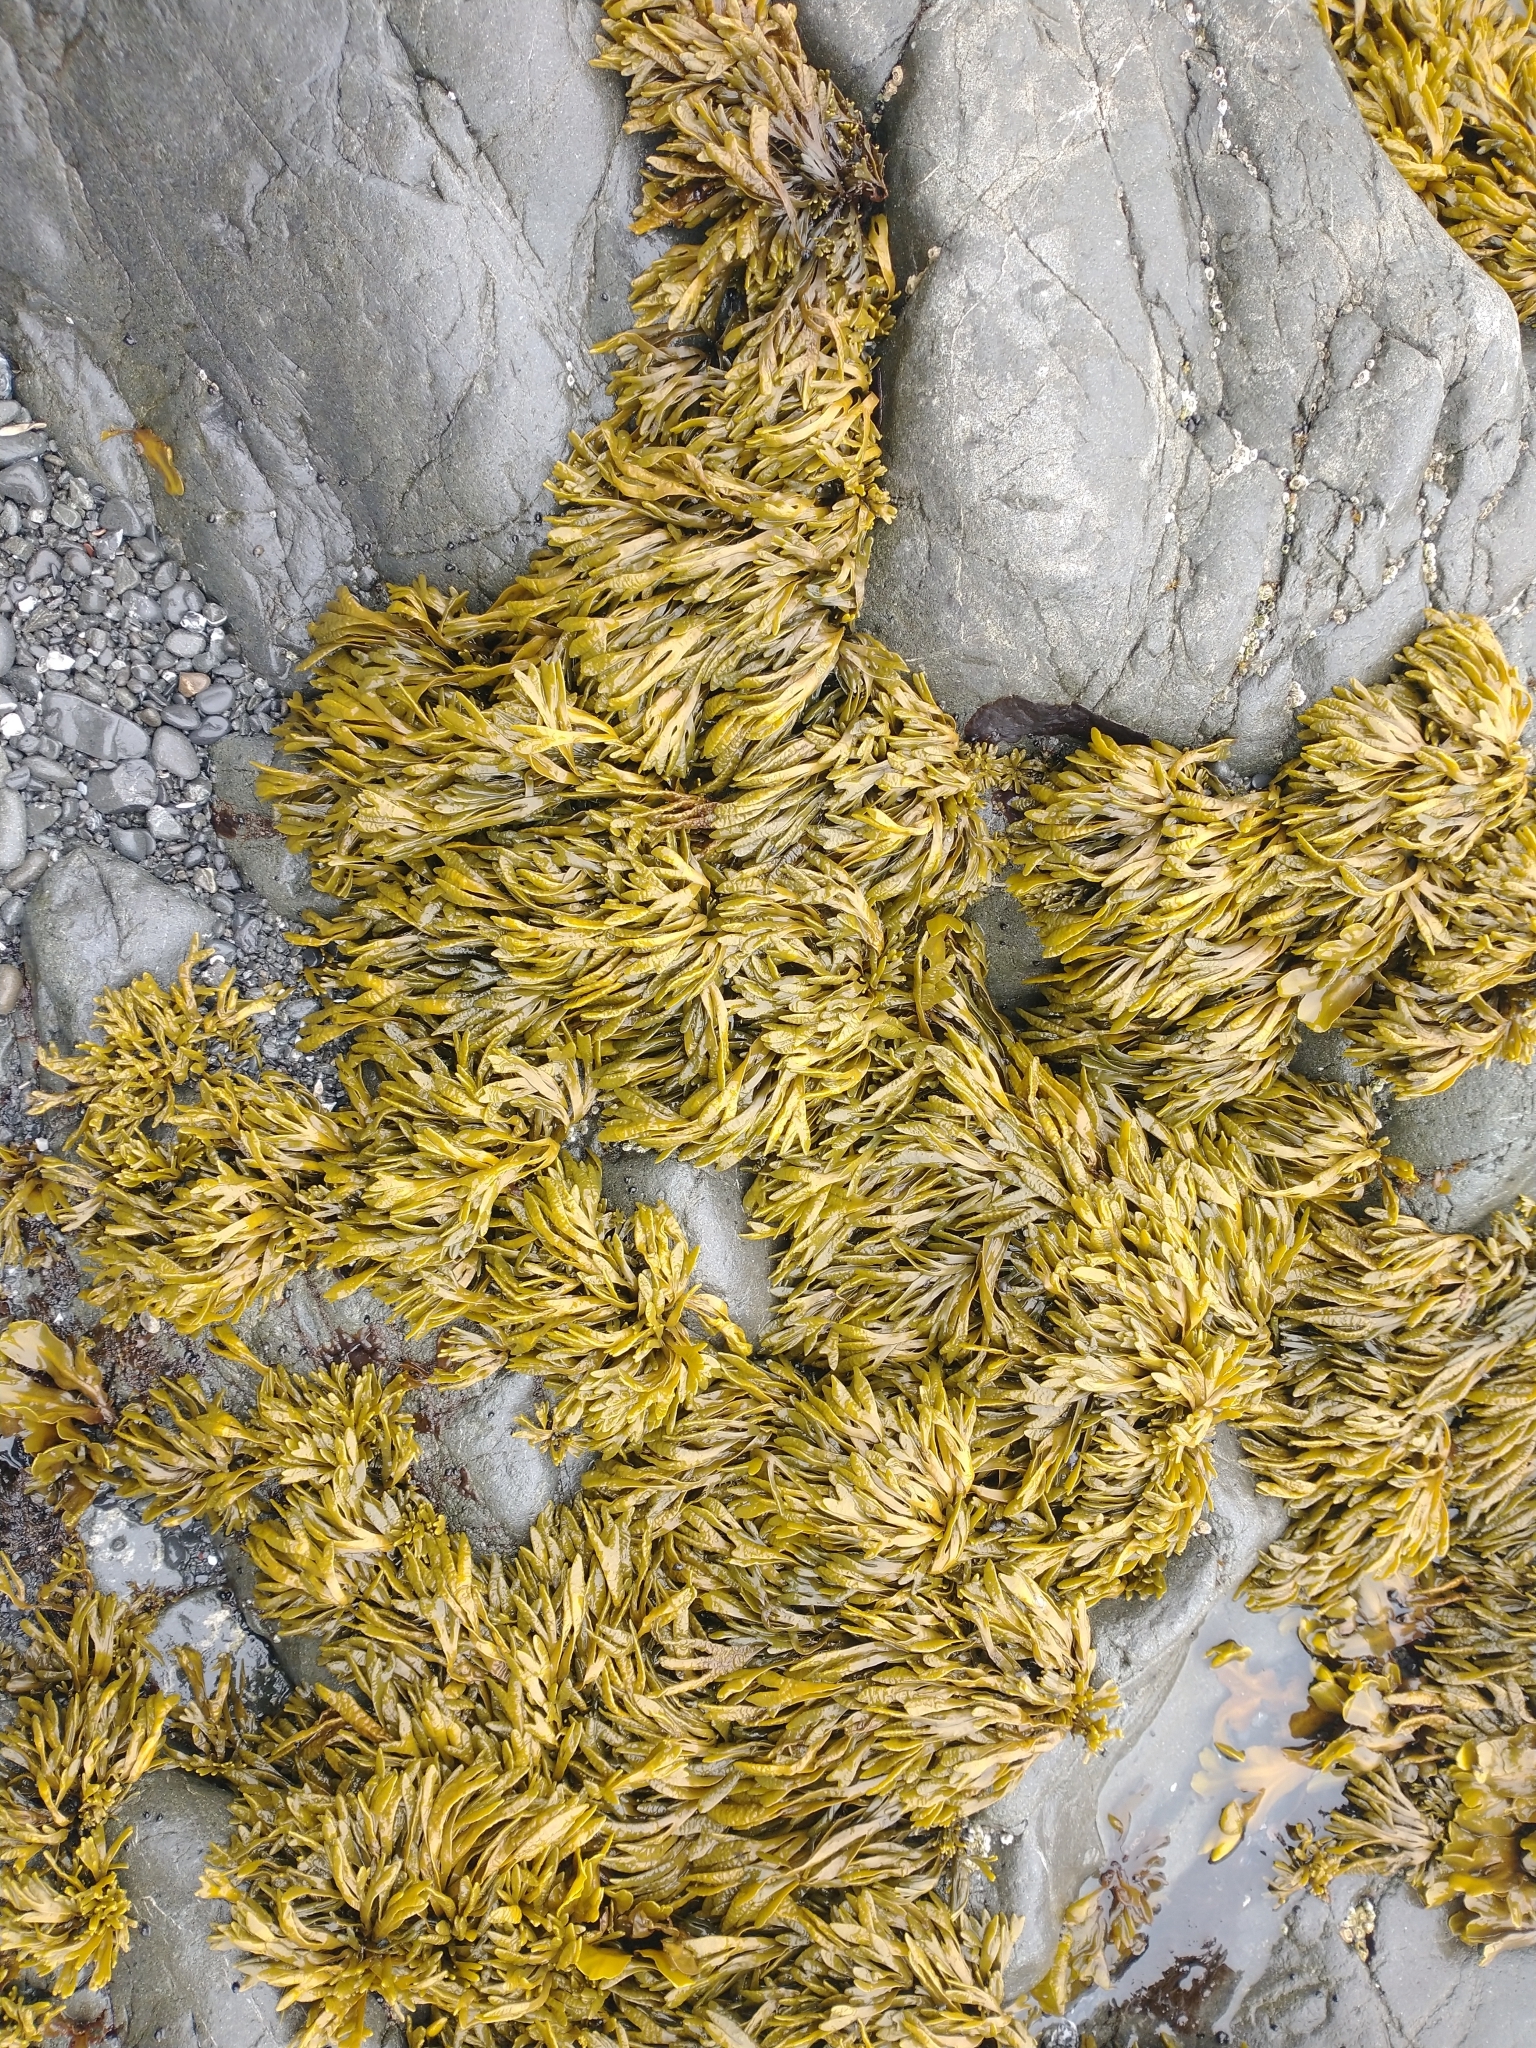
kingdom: Chromista
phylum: Ochrophyta
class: Phaeophyceae
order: Fucales
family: Fucaceae
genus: Pelvetiopsis
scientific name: Pelvetiopsis limitata
